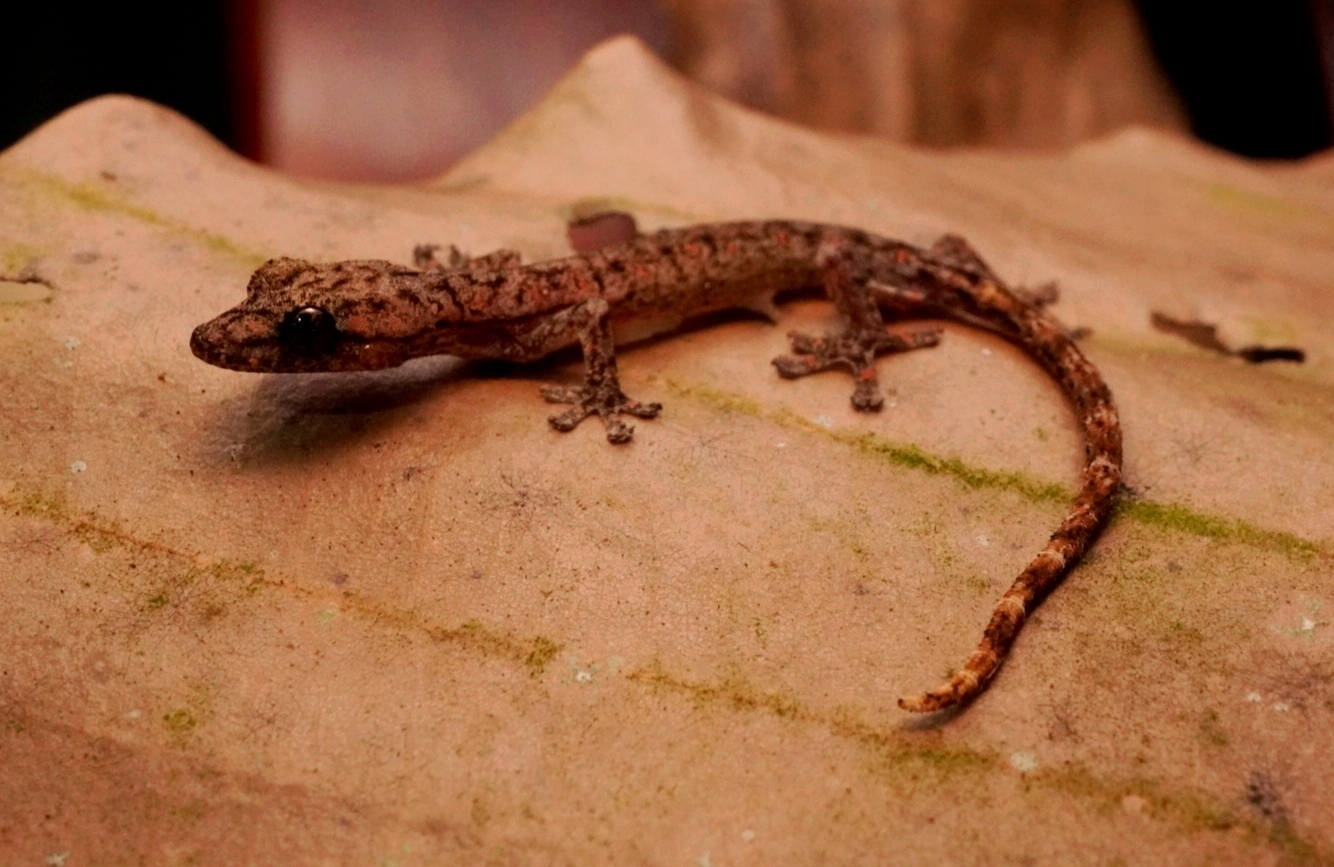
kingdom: Animalia
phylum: Chordata
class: Squamata
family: Gekkonidae
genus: Hemiphyllodactylus
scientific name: Hemiphyllodactylus cattien
